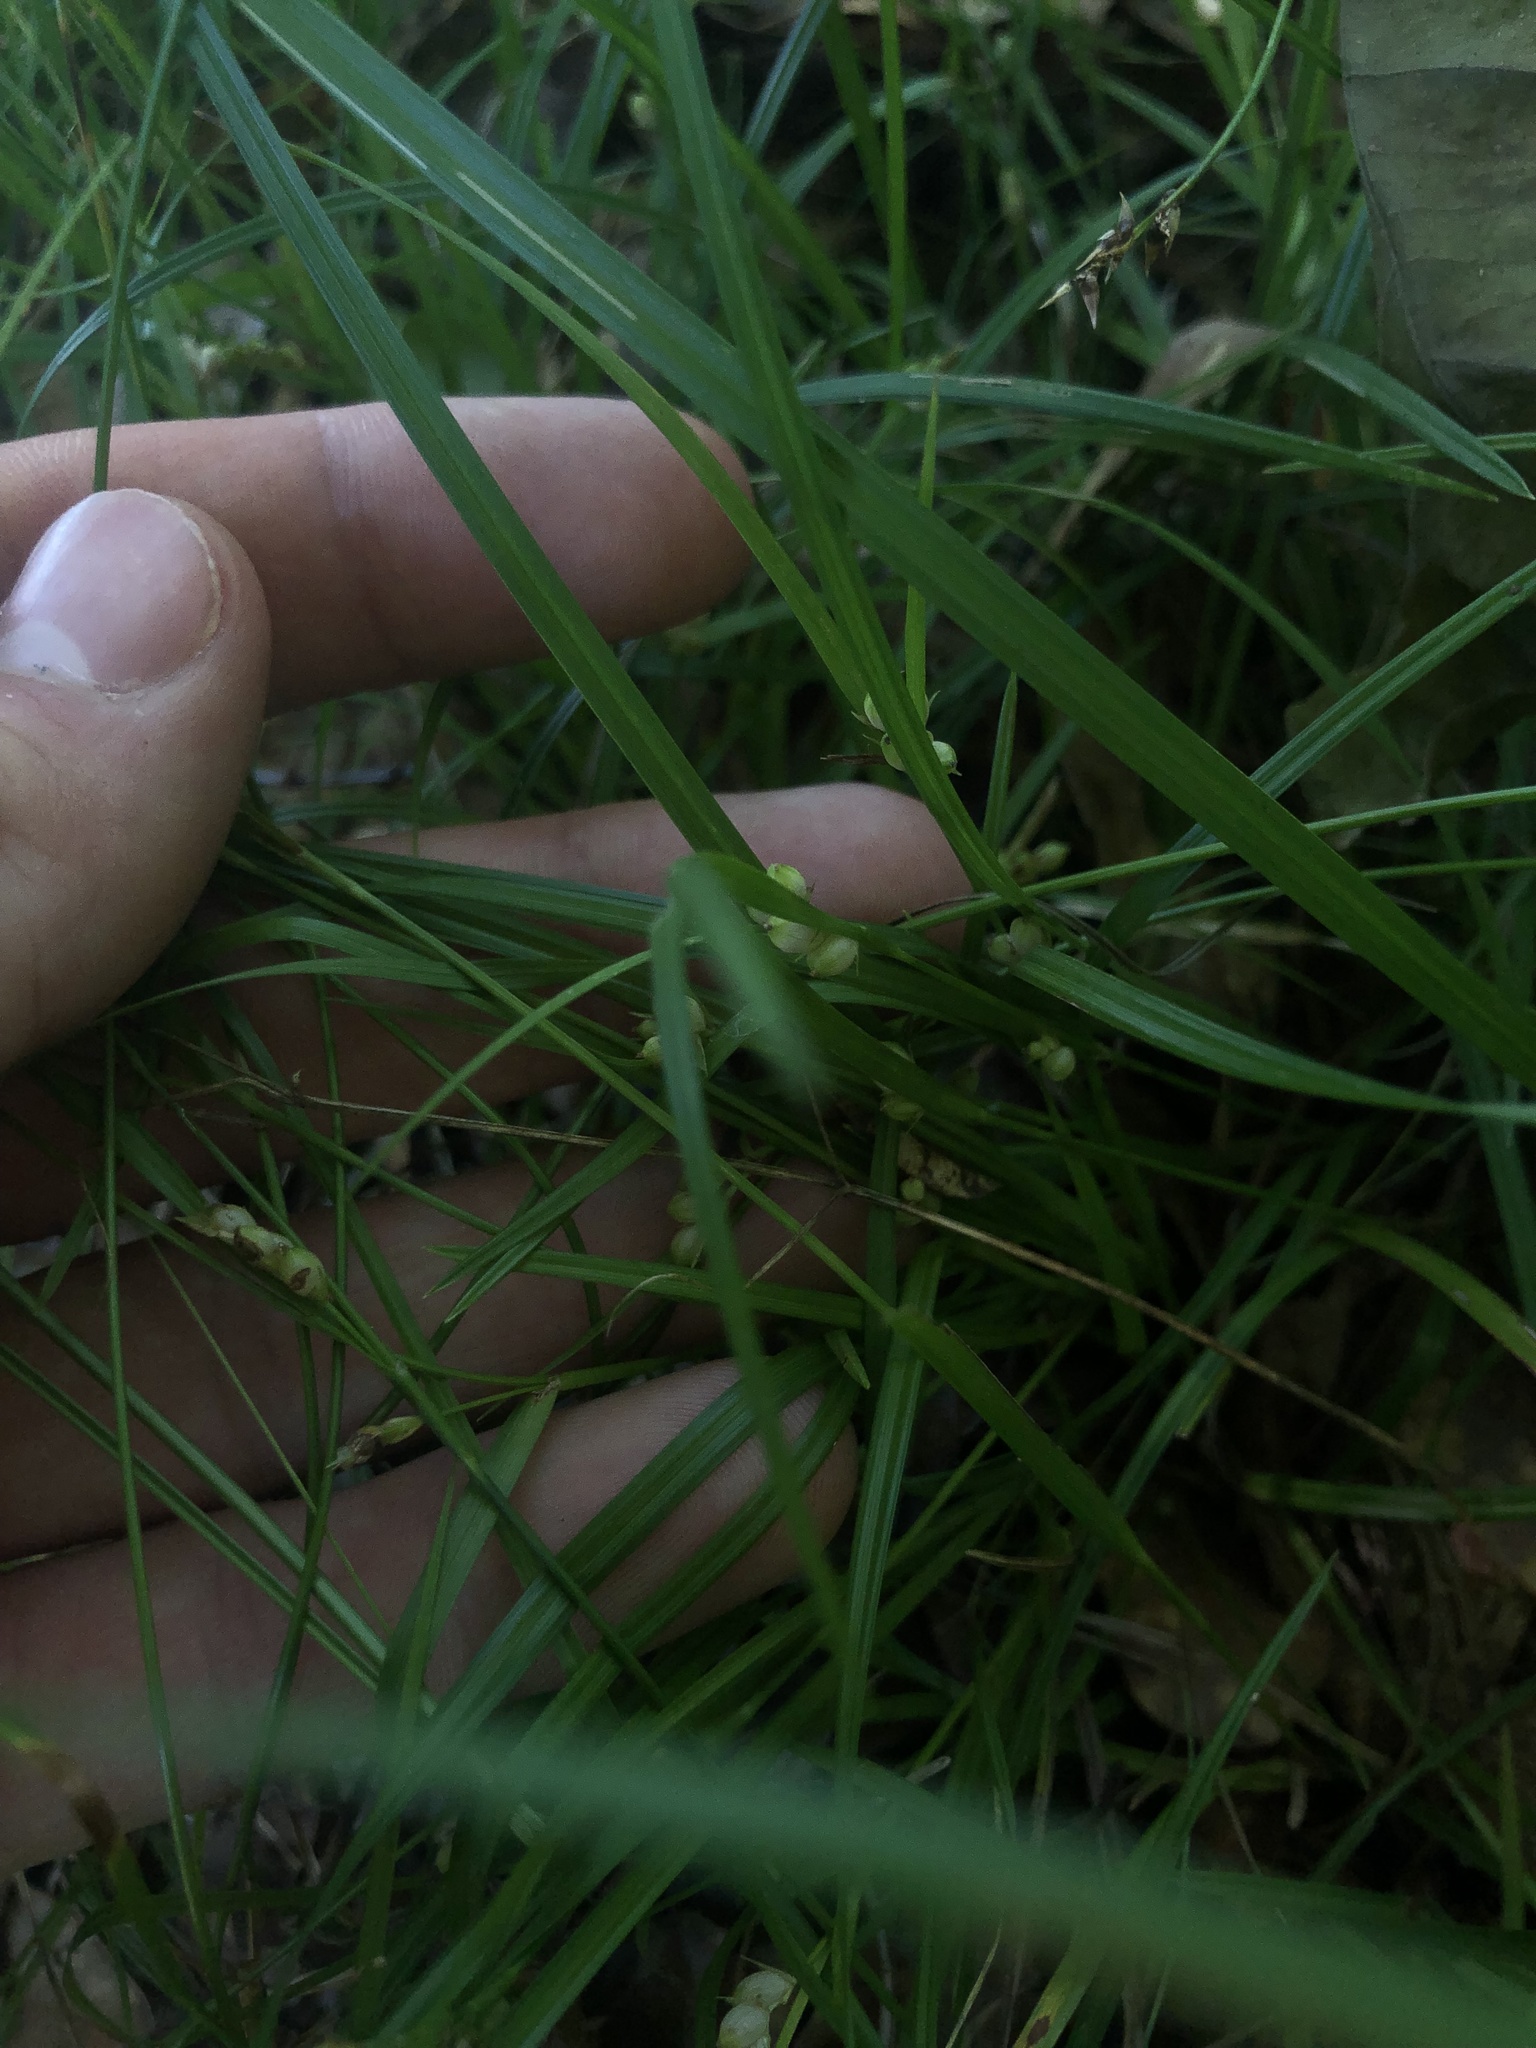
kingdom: Plantae
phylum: Tracheophyta
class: Liliopsida
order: Poales
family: Cyperaceae
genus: Carex
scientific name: Carex bulbostylis
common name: Eastern narrowleaf sedge
